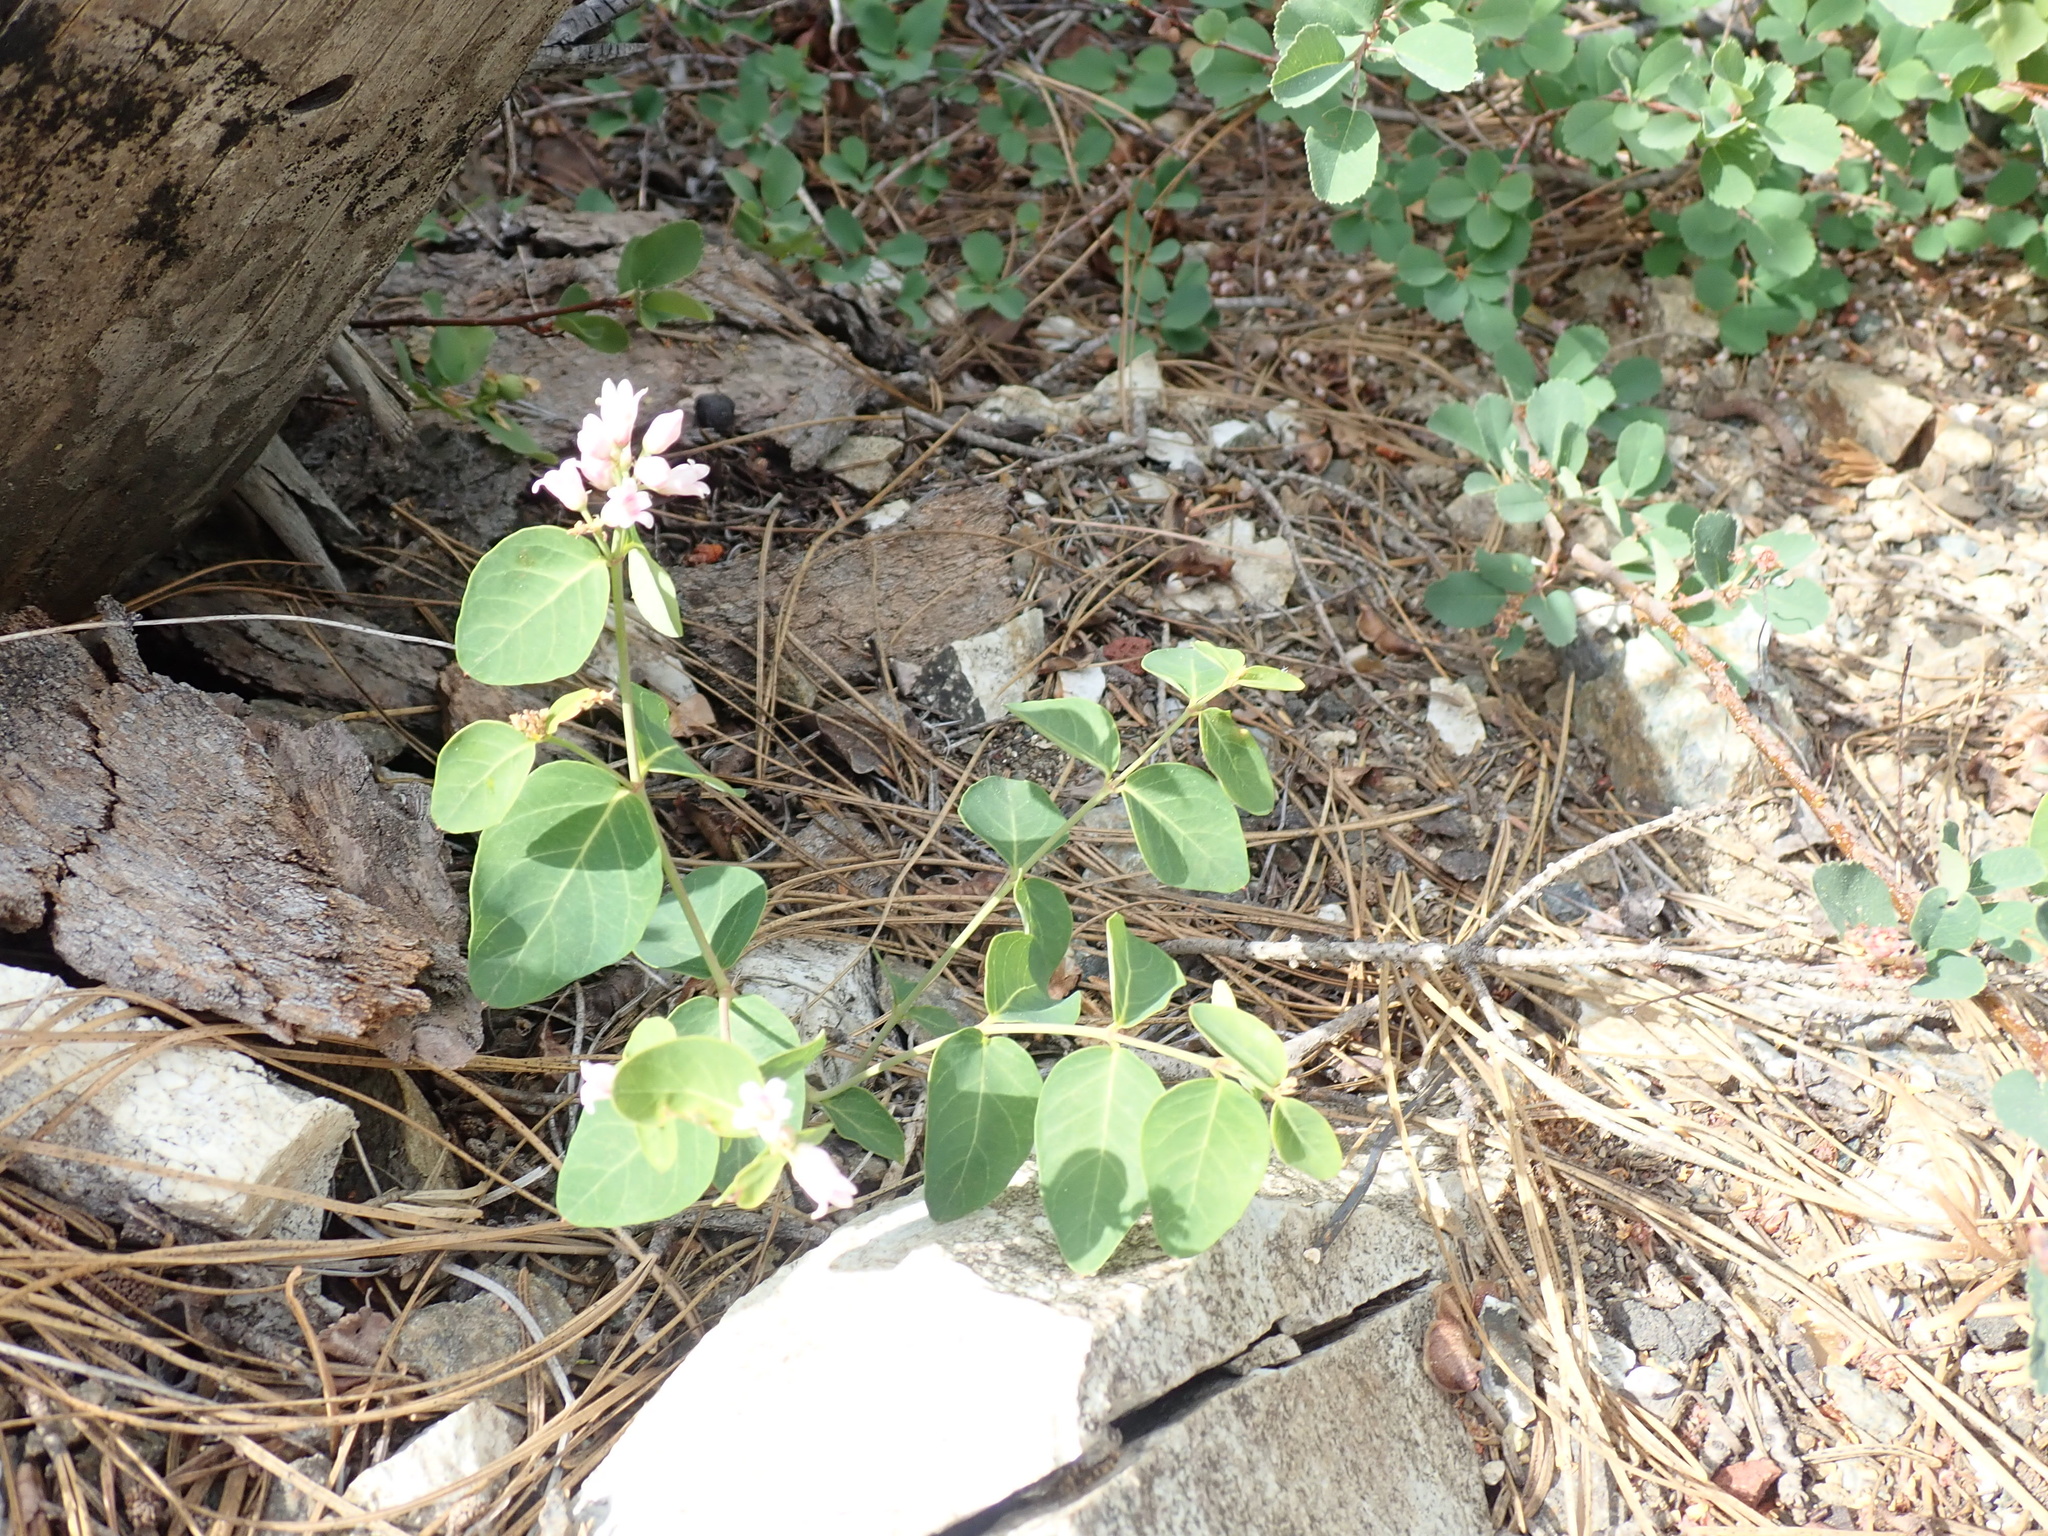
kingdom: Plantae
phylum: Tracheophyta
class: Magnoliopsida
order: Gentianales
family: Apocynaceae
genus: Apocynum
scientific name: Apocynum androsaemifolium
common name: Spreading dogbane
